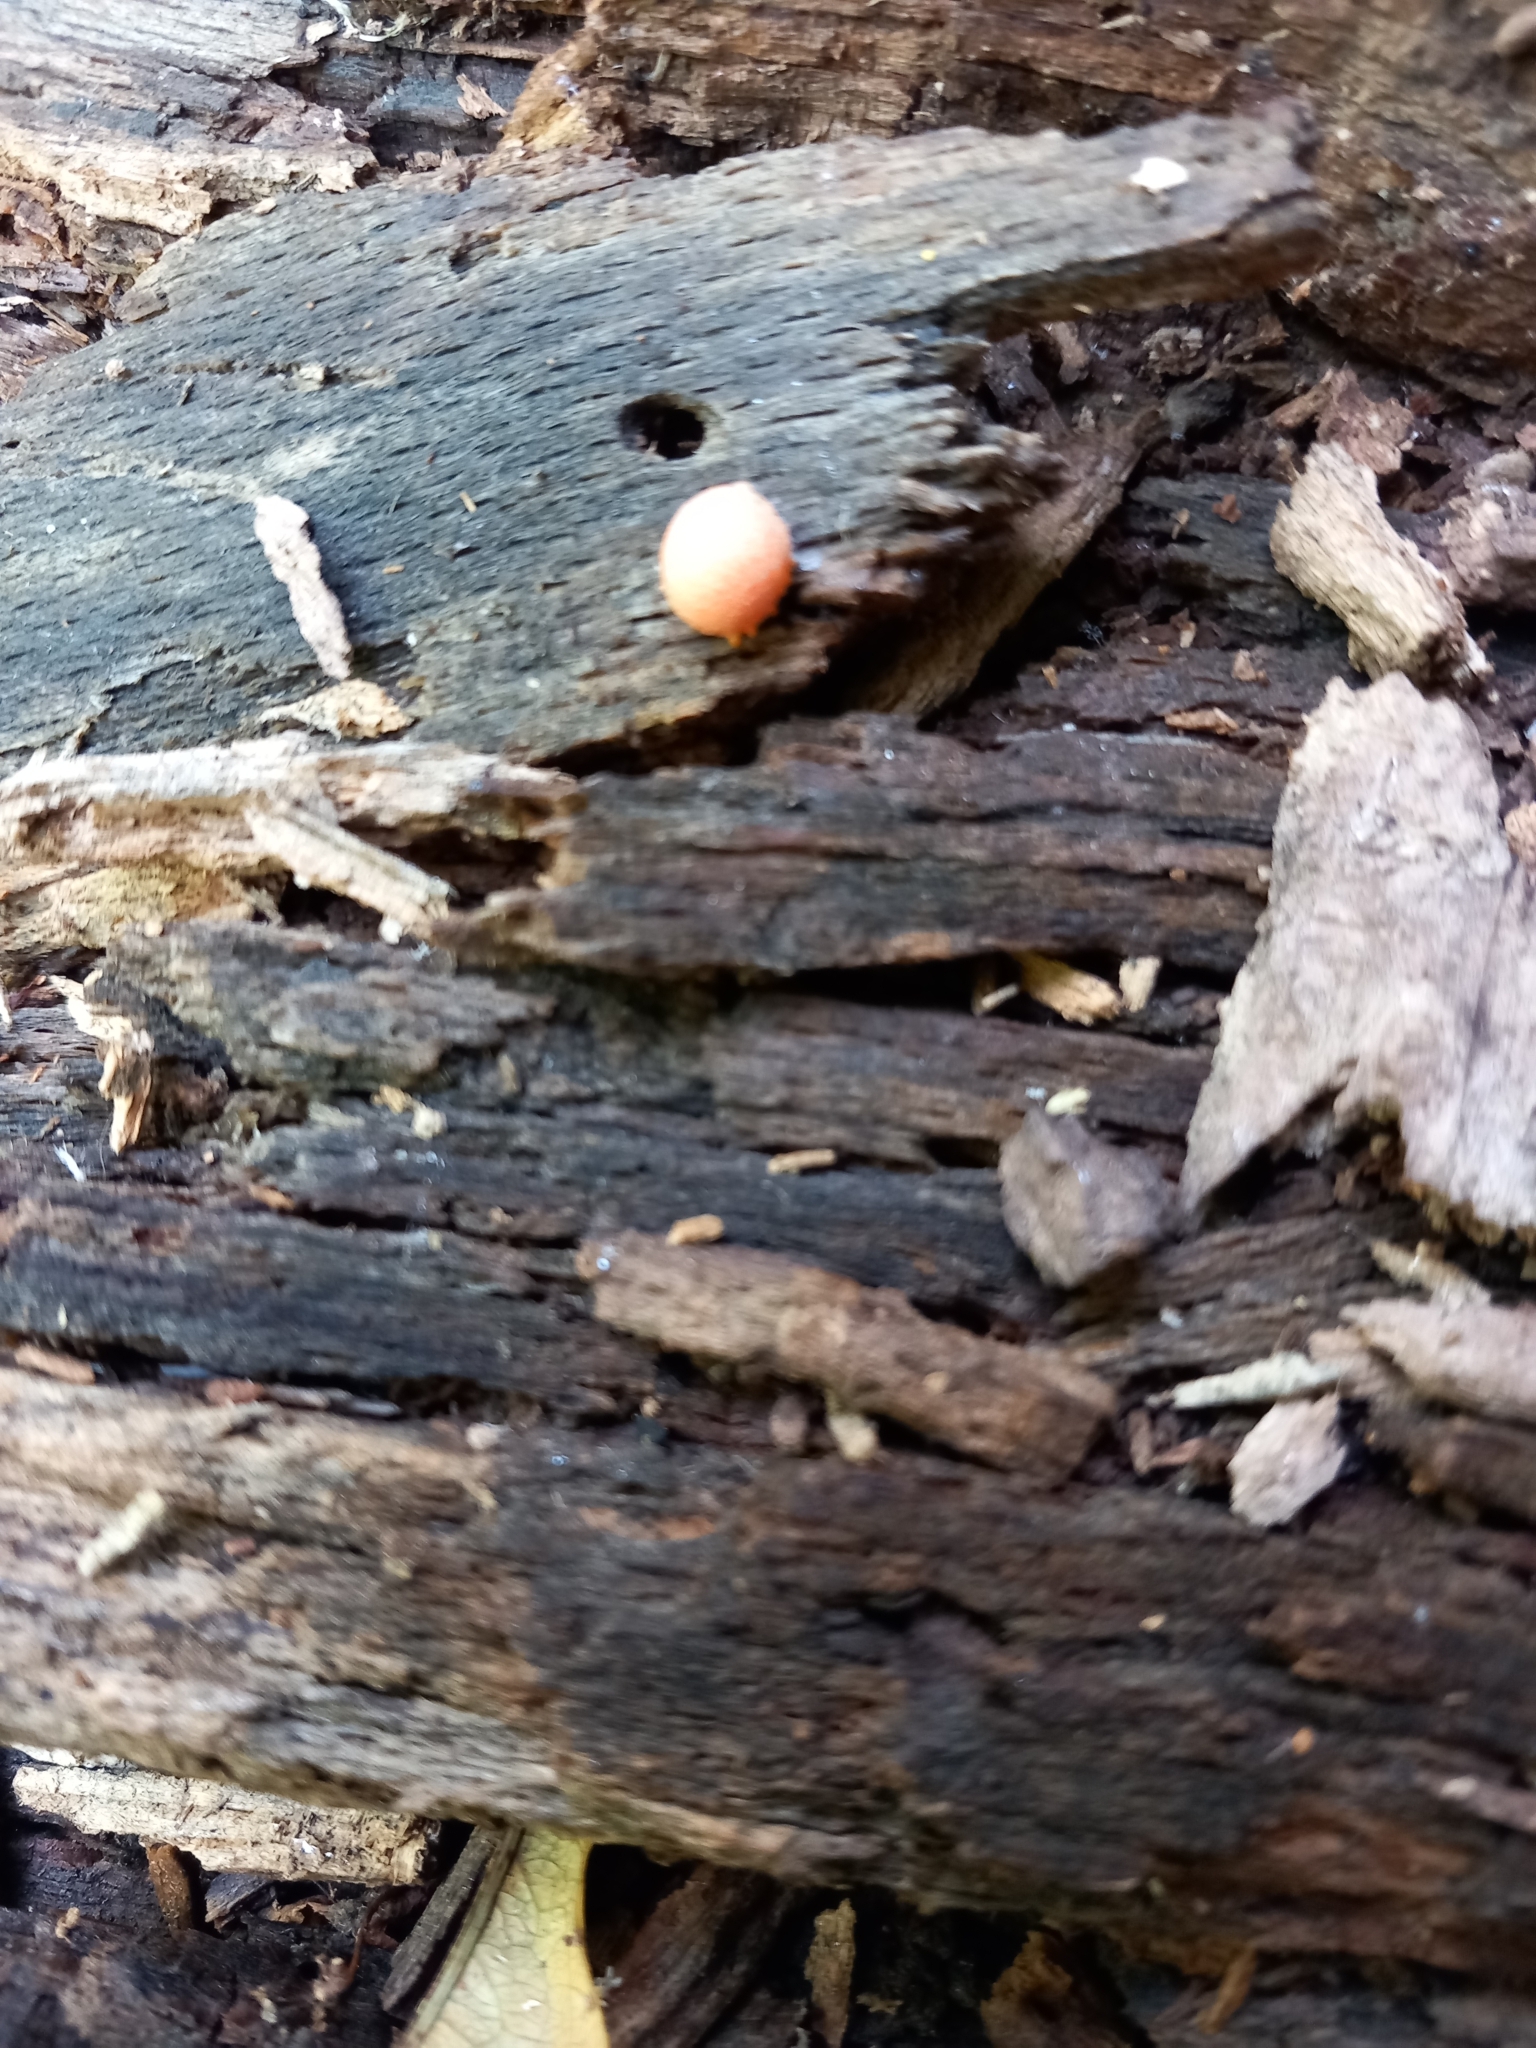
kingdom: Protozoa
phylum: Mycetozoa
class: Myxomycetes
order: Cribrariales
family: Tubiferaceae
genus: Lycogala
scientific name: Lycogala epidendrum
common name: Wolf's milk
